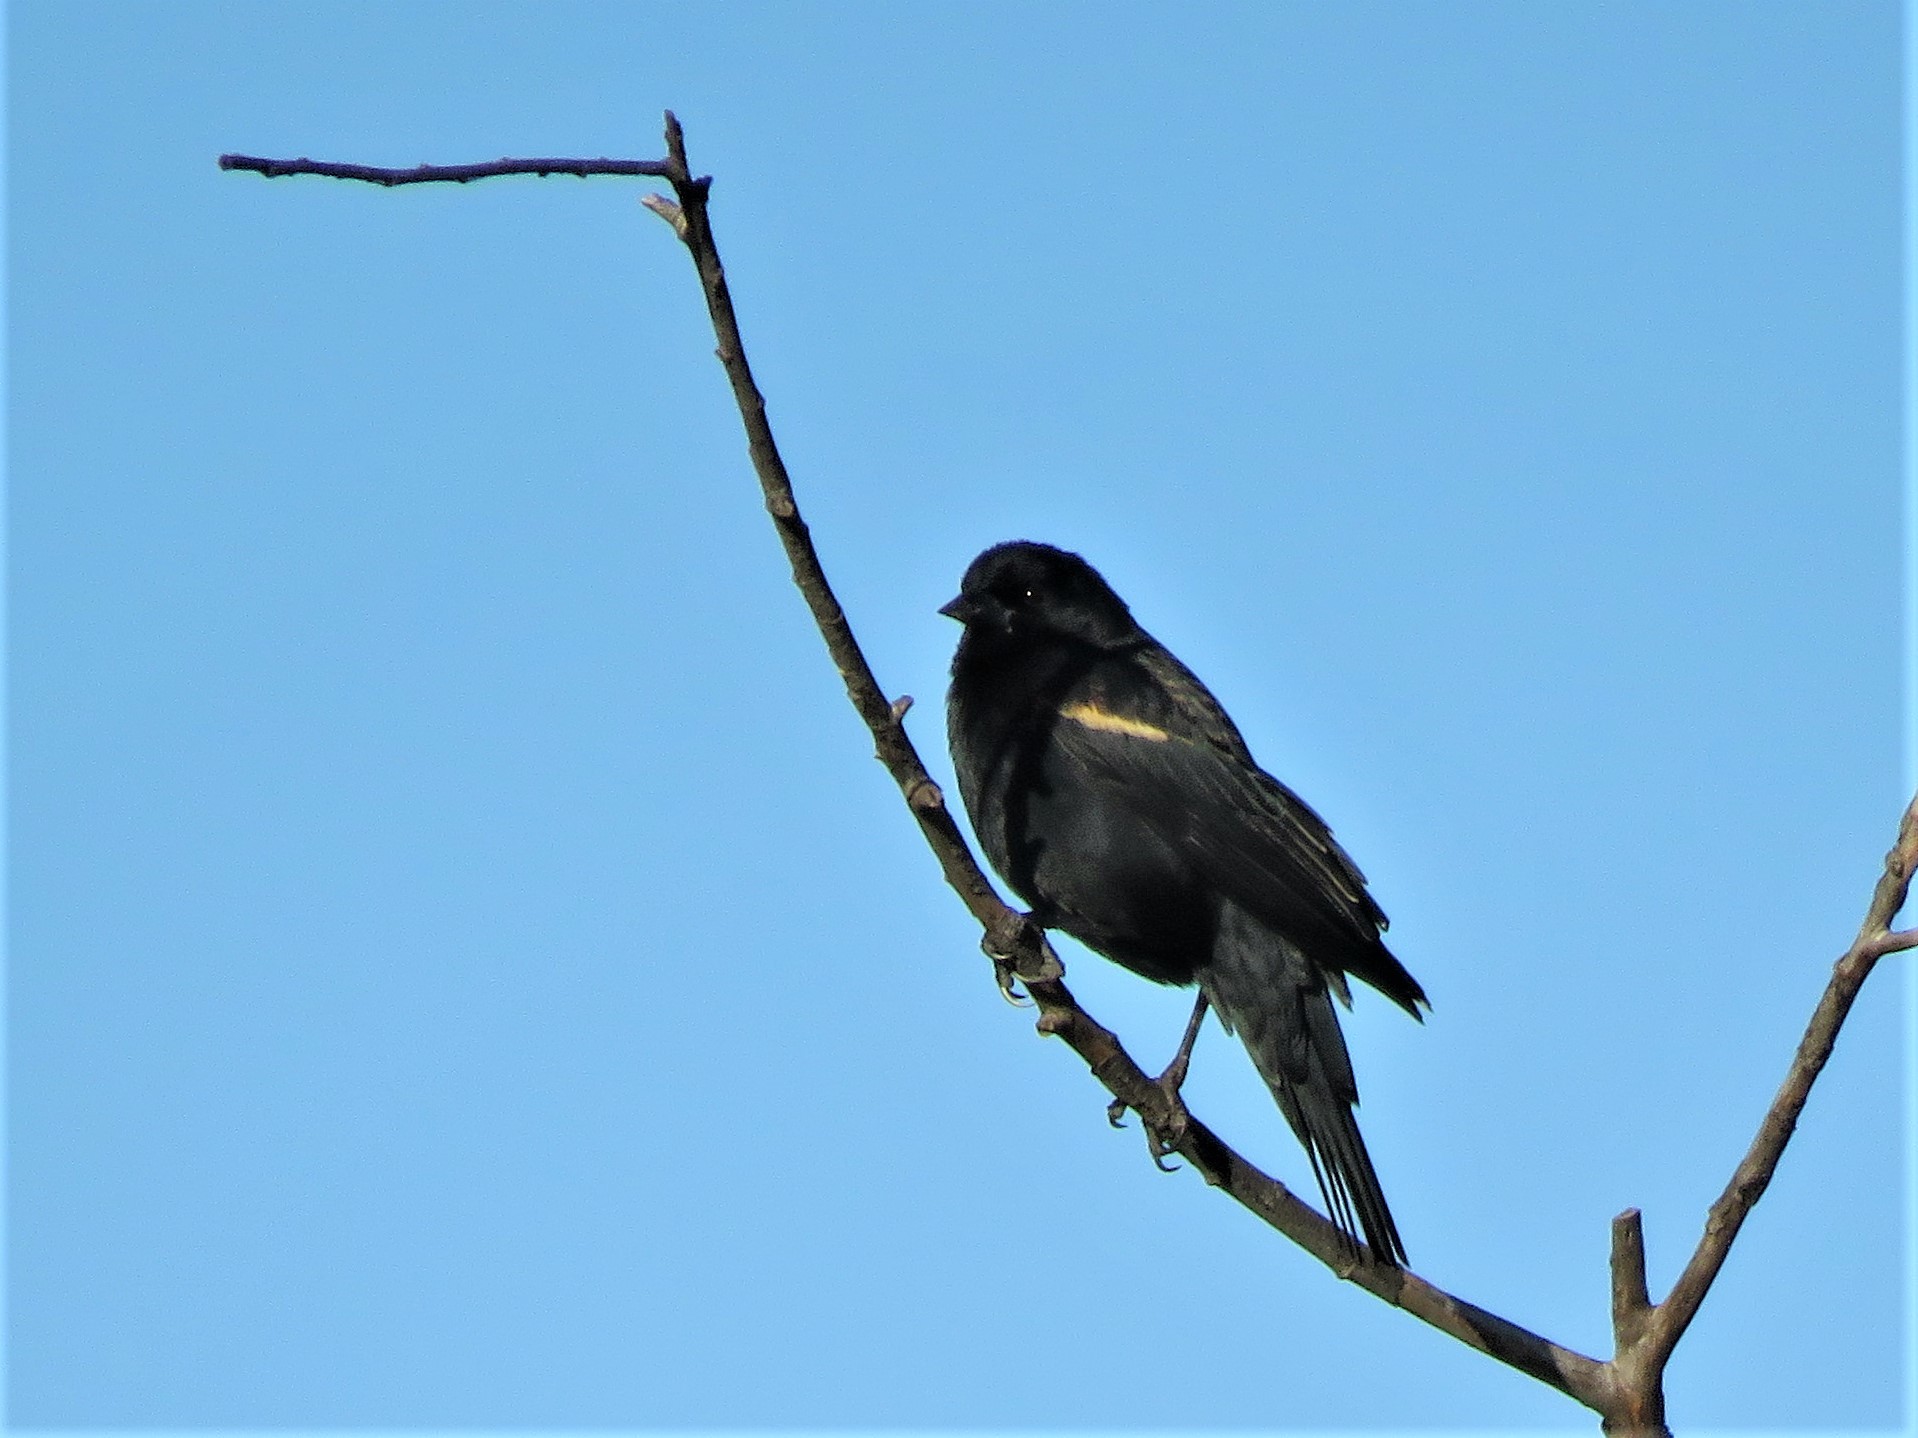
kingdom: Animalia
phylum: Chordata
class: Aves
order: Passeriformes
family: Icteridae
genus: Agelaius
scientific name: Agelaius phoeniceus
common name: Red-winged blackbird
